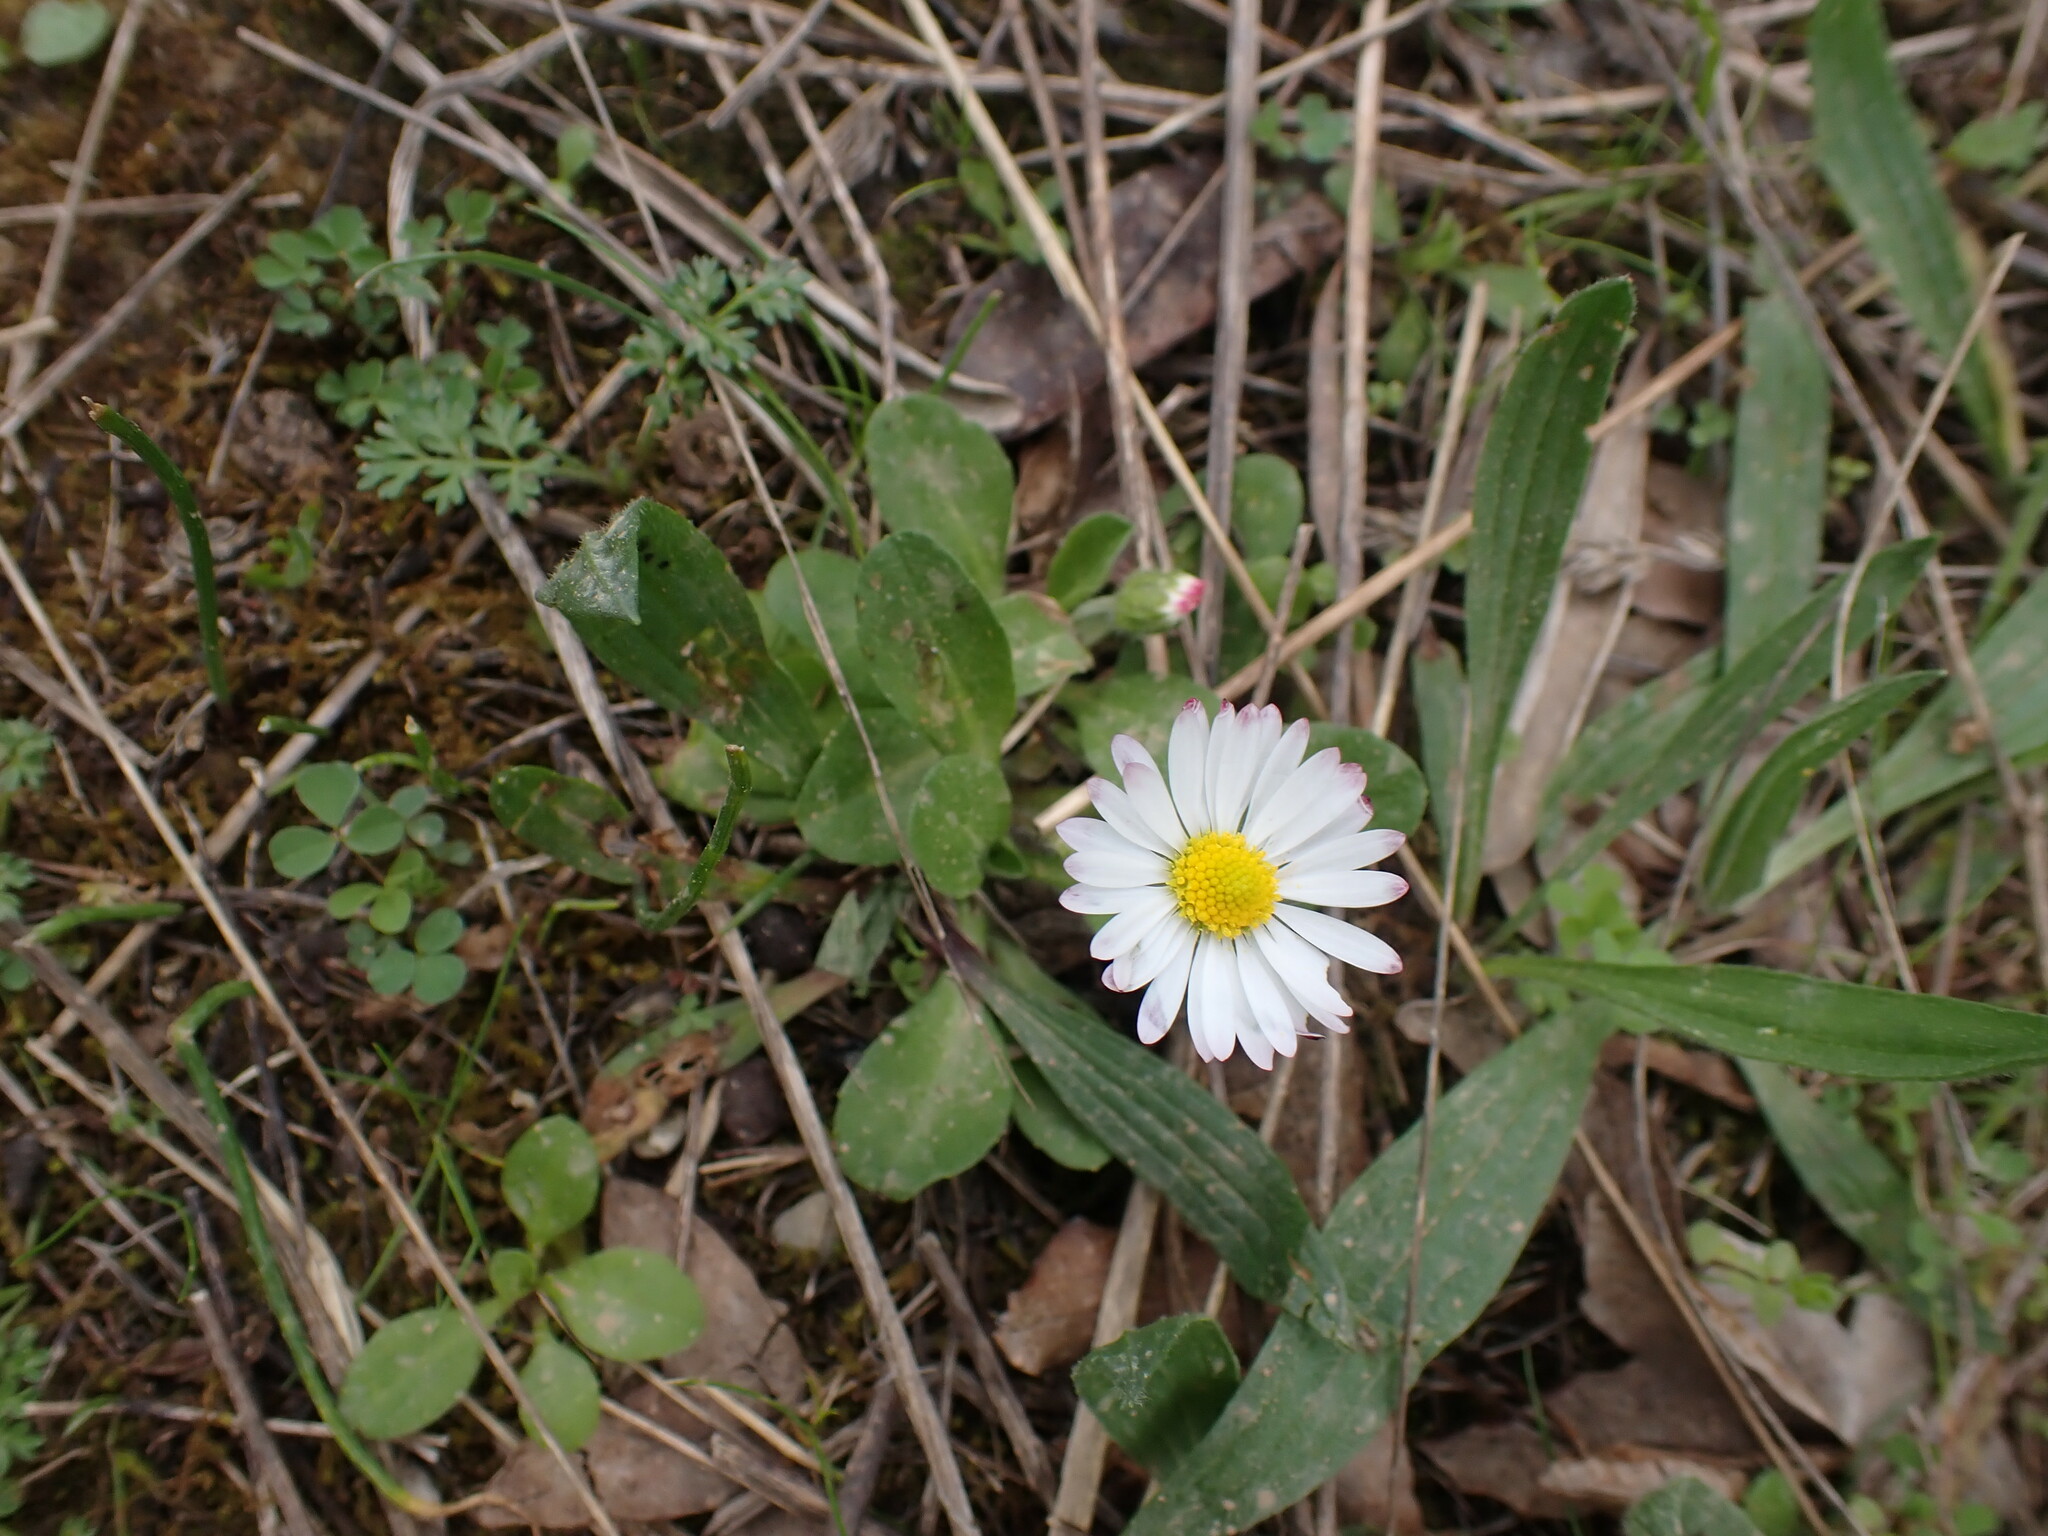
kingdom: Plantae
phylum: Tracheophyta
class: Magnoliopsida
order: Asterales
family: Asteraceae
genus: Bellis
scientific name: Bellis perennis
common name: Lawndaisy
